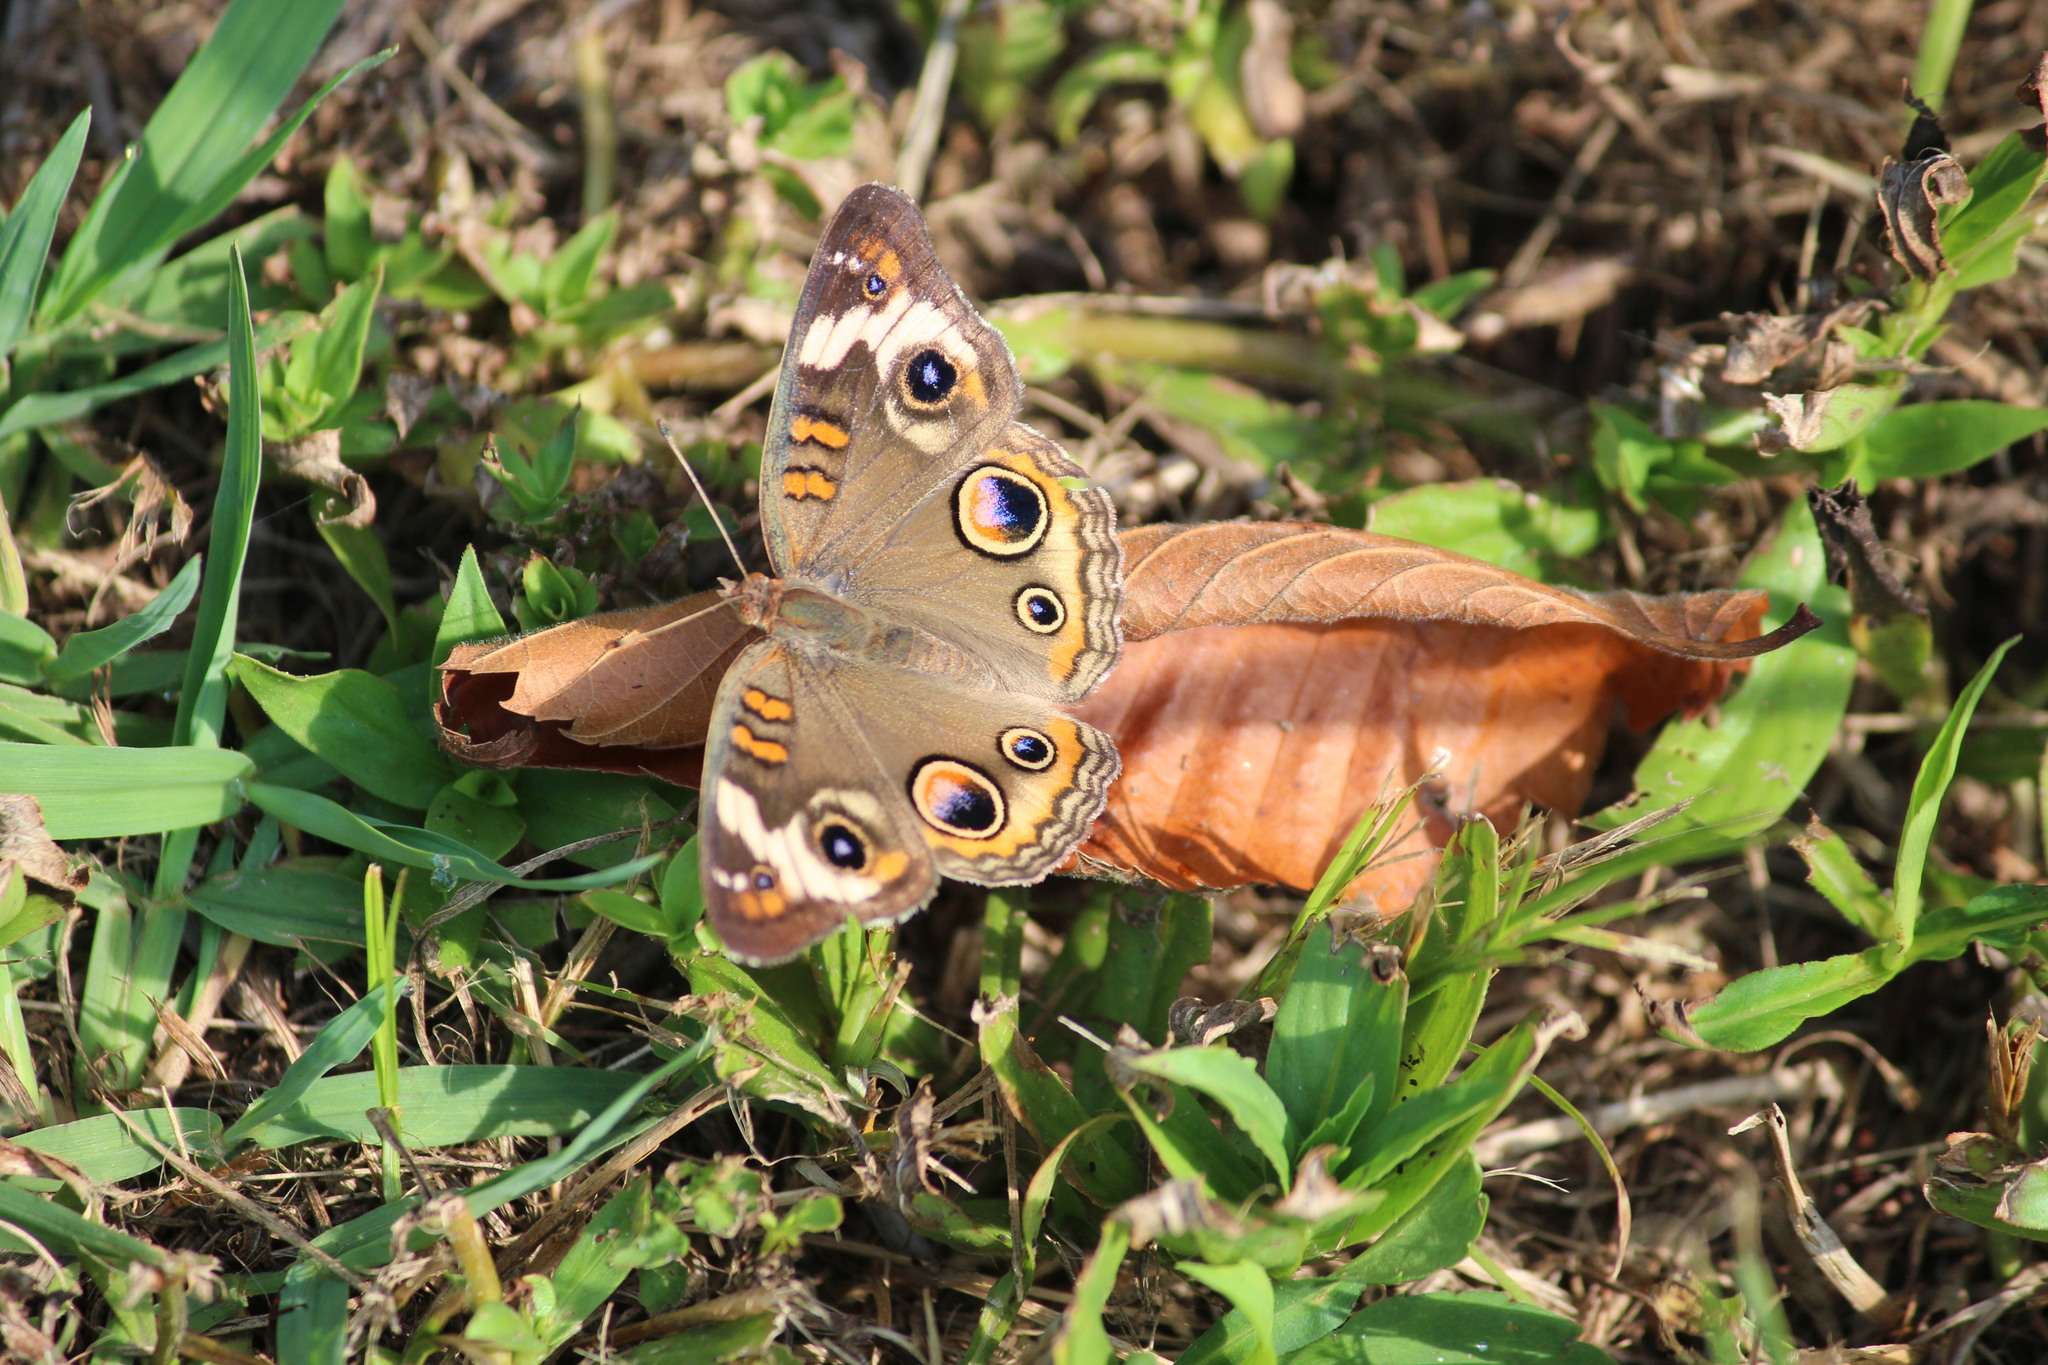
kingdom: Animalia
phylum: Arthropoda
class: Insecta
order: Lepidoptera
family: Nymphalidae
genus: Junonia
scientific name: Junonia coenia
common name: Common buckeye
